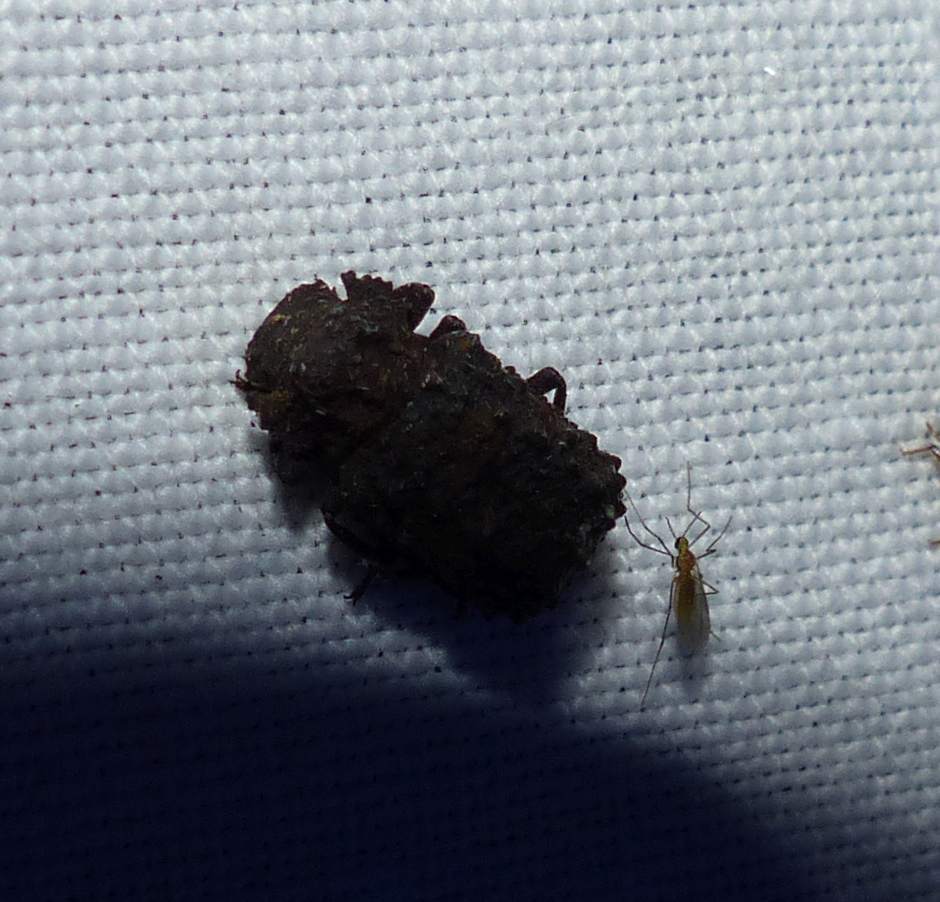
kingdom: Animalia
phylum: Arthropoda
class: Insecta
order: Coleoptera
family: Tenebrionidae
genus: Gnatocerus
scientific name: Gnatocerus cornutus
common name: Broad-horned flour beetle
